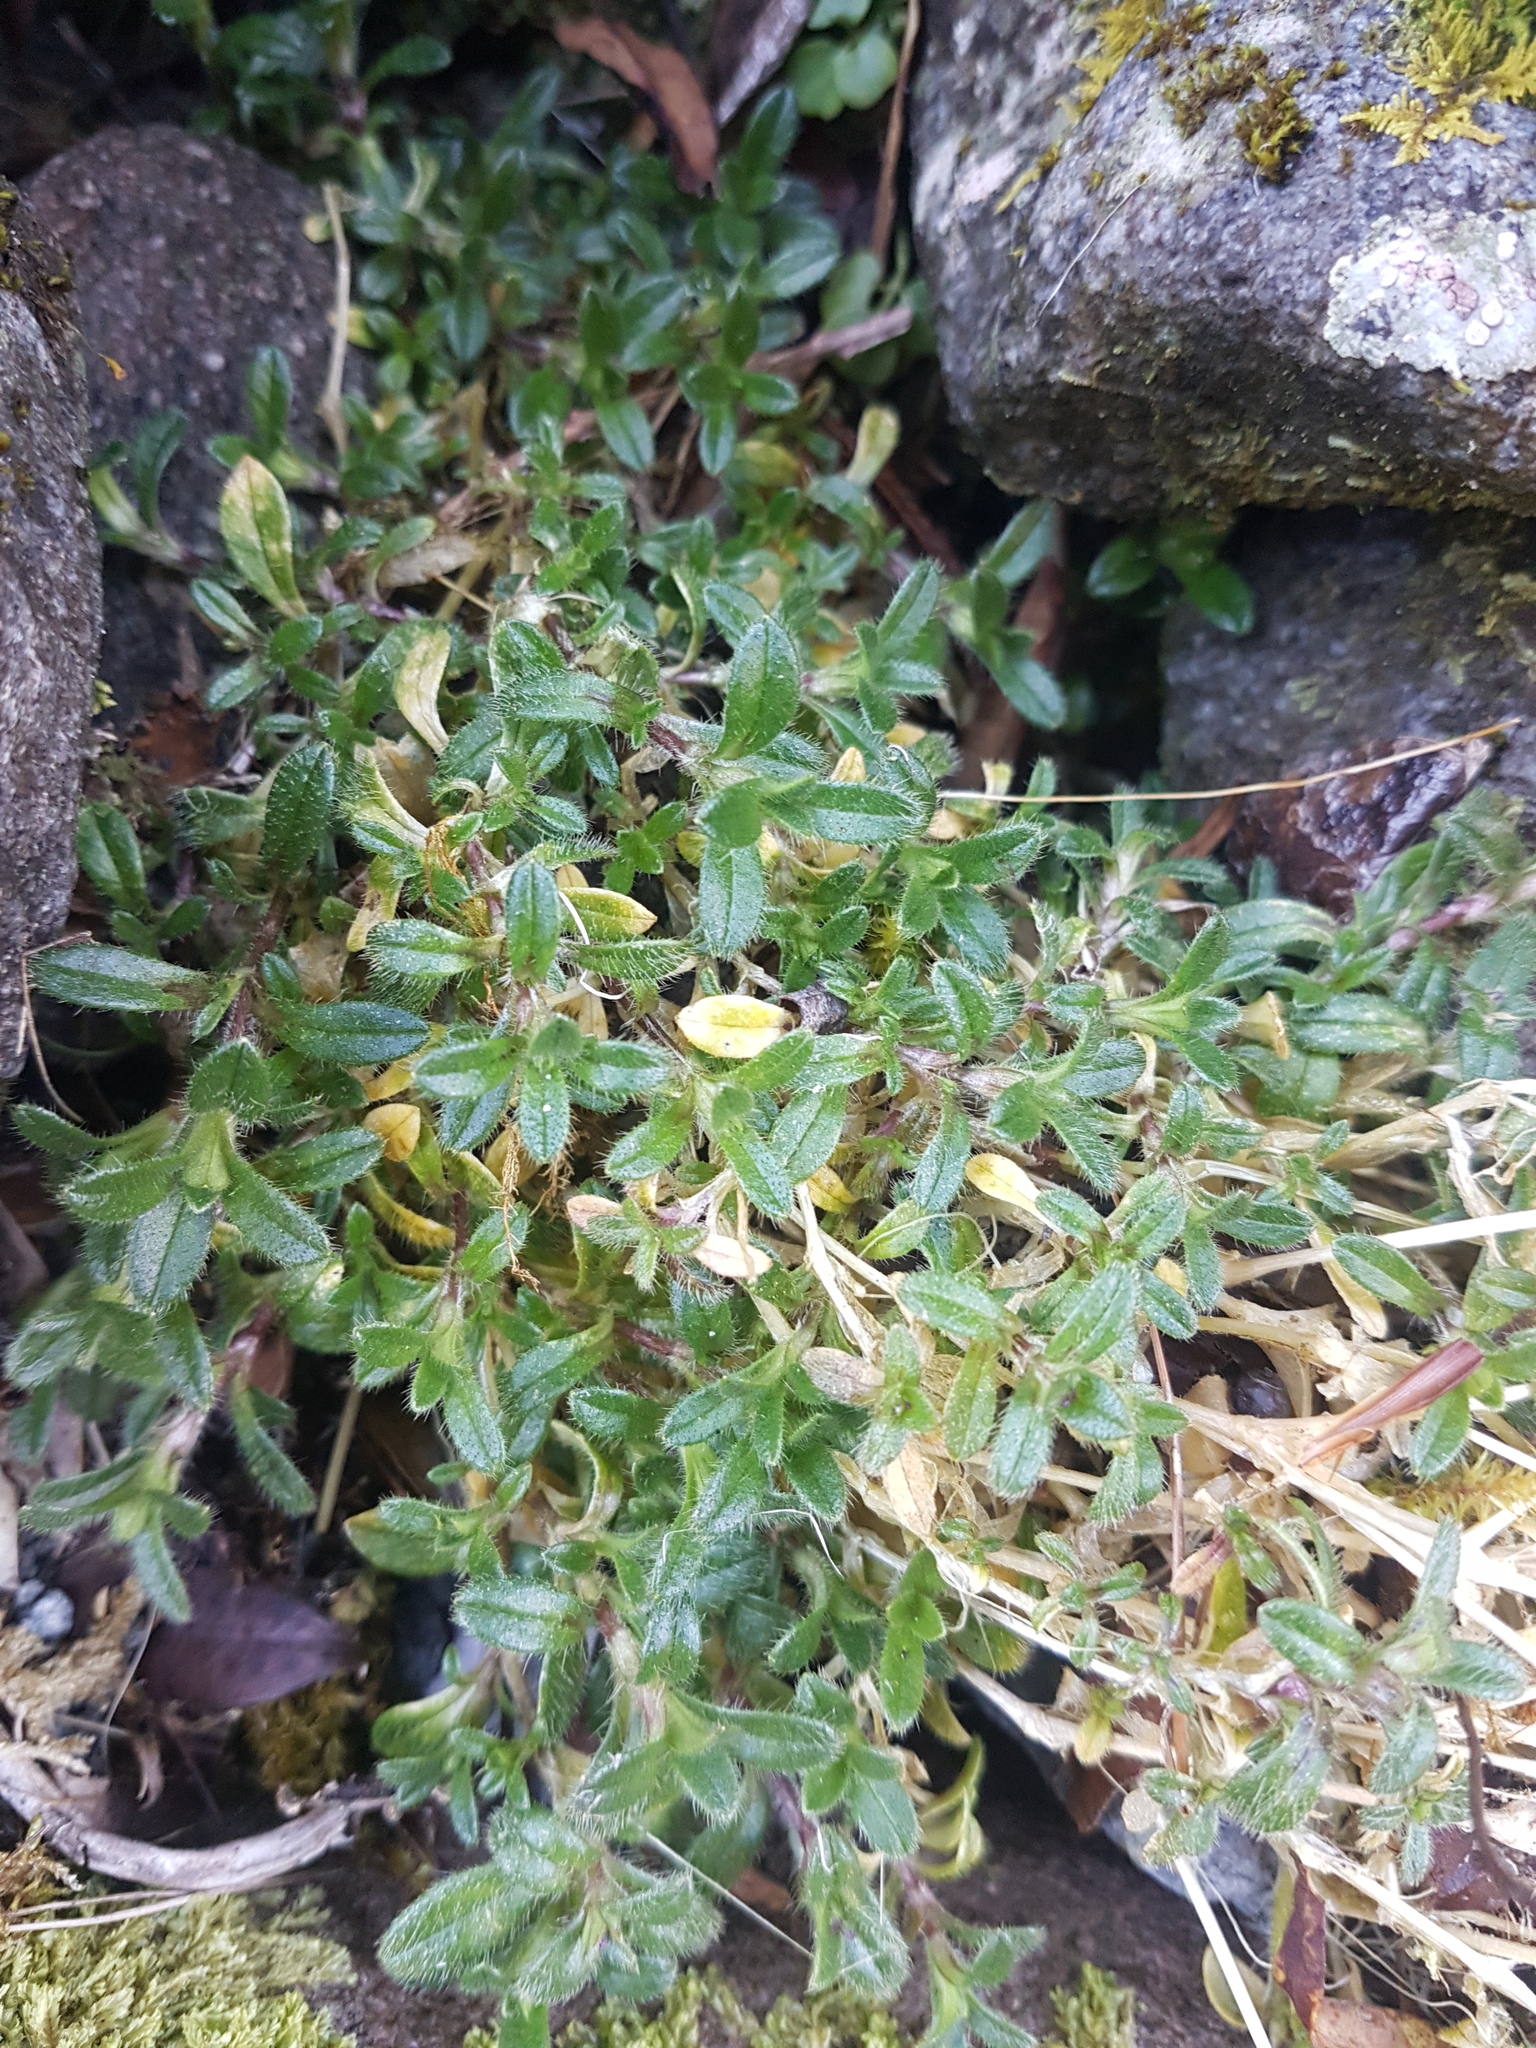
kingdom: Plantae
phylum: Tracheophyta
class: Magnoliopsida
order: Caryophyllales
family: Caryophyllaceae
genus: Cerastium
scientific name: Cerastium fontanum
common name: Common mouse-ear
